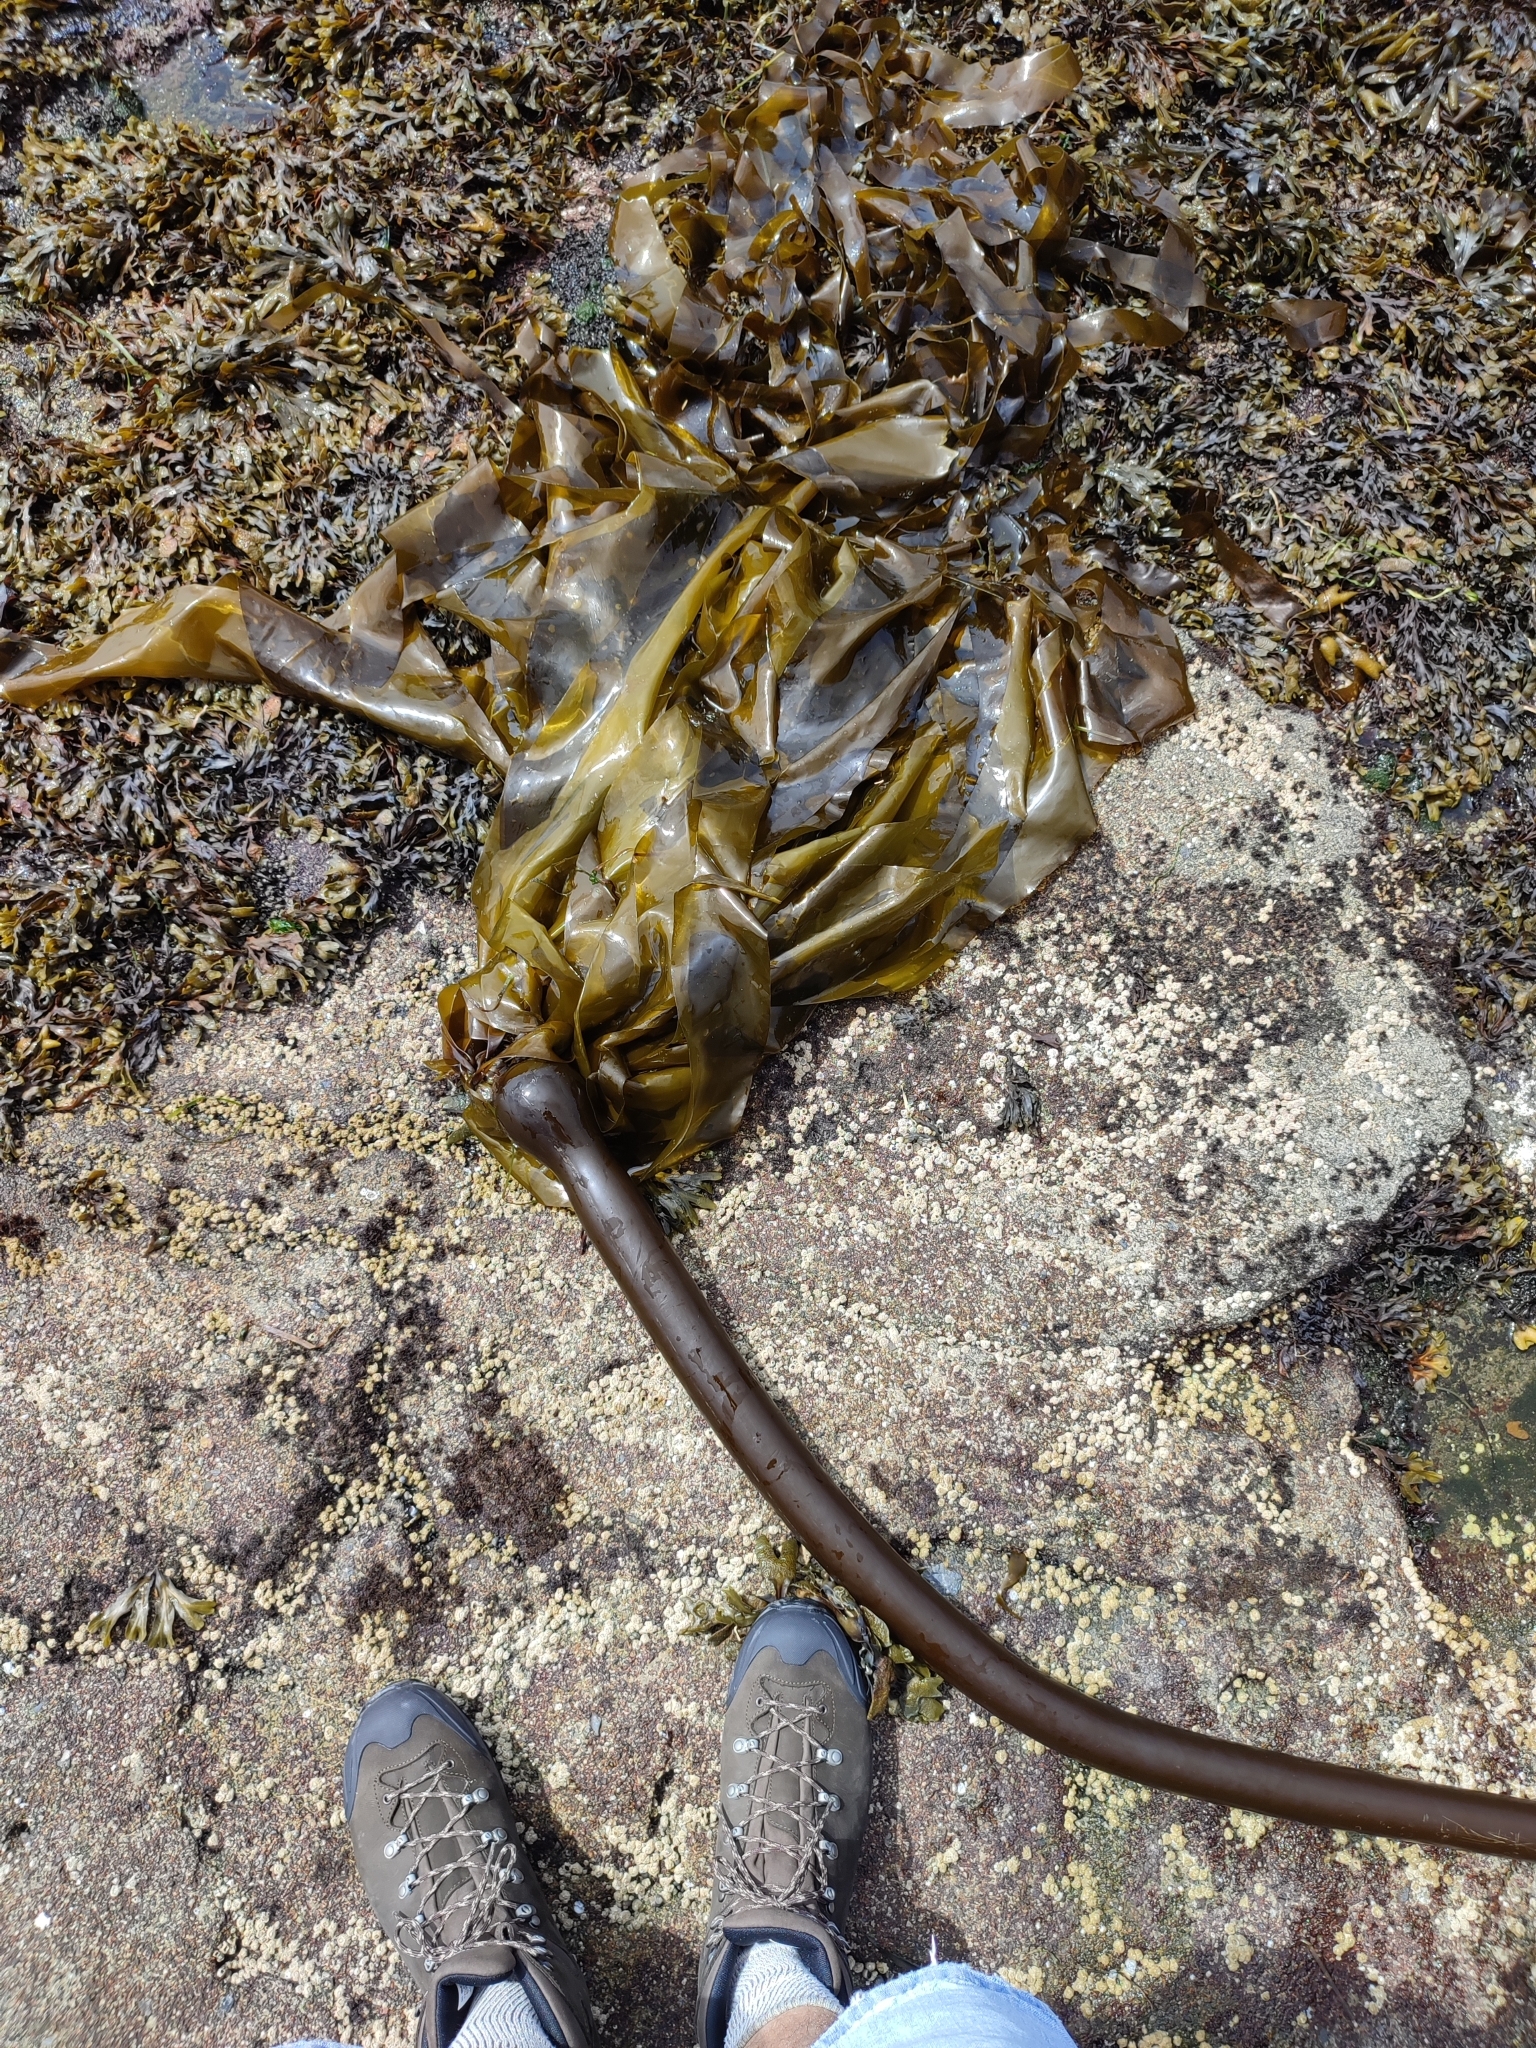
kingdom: Chromista
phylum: Ochrophyta
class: Phaeophyceae
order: Laminariales
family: Laminariaceae
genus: Nereocystis
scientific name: Nereocystis luetkeana
